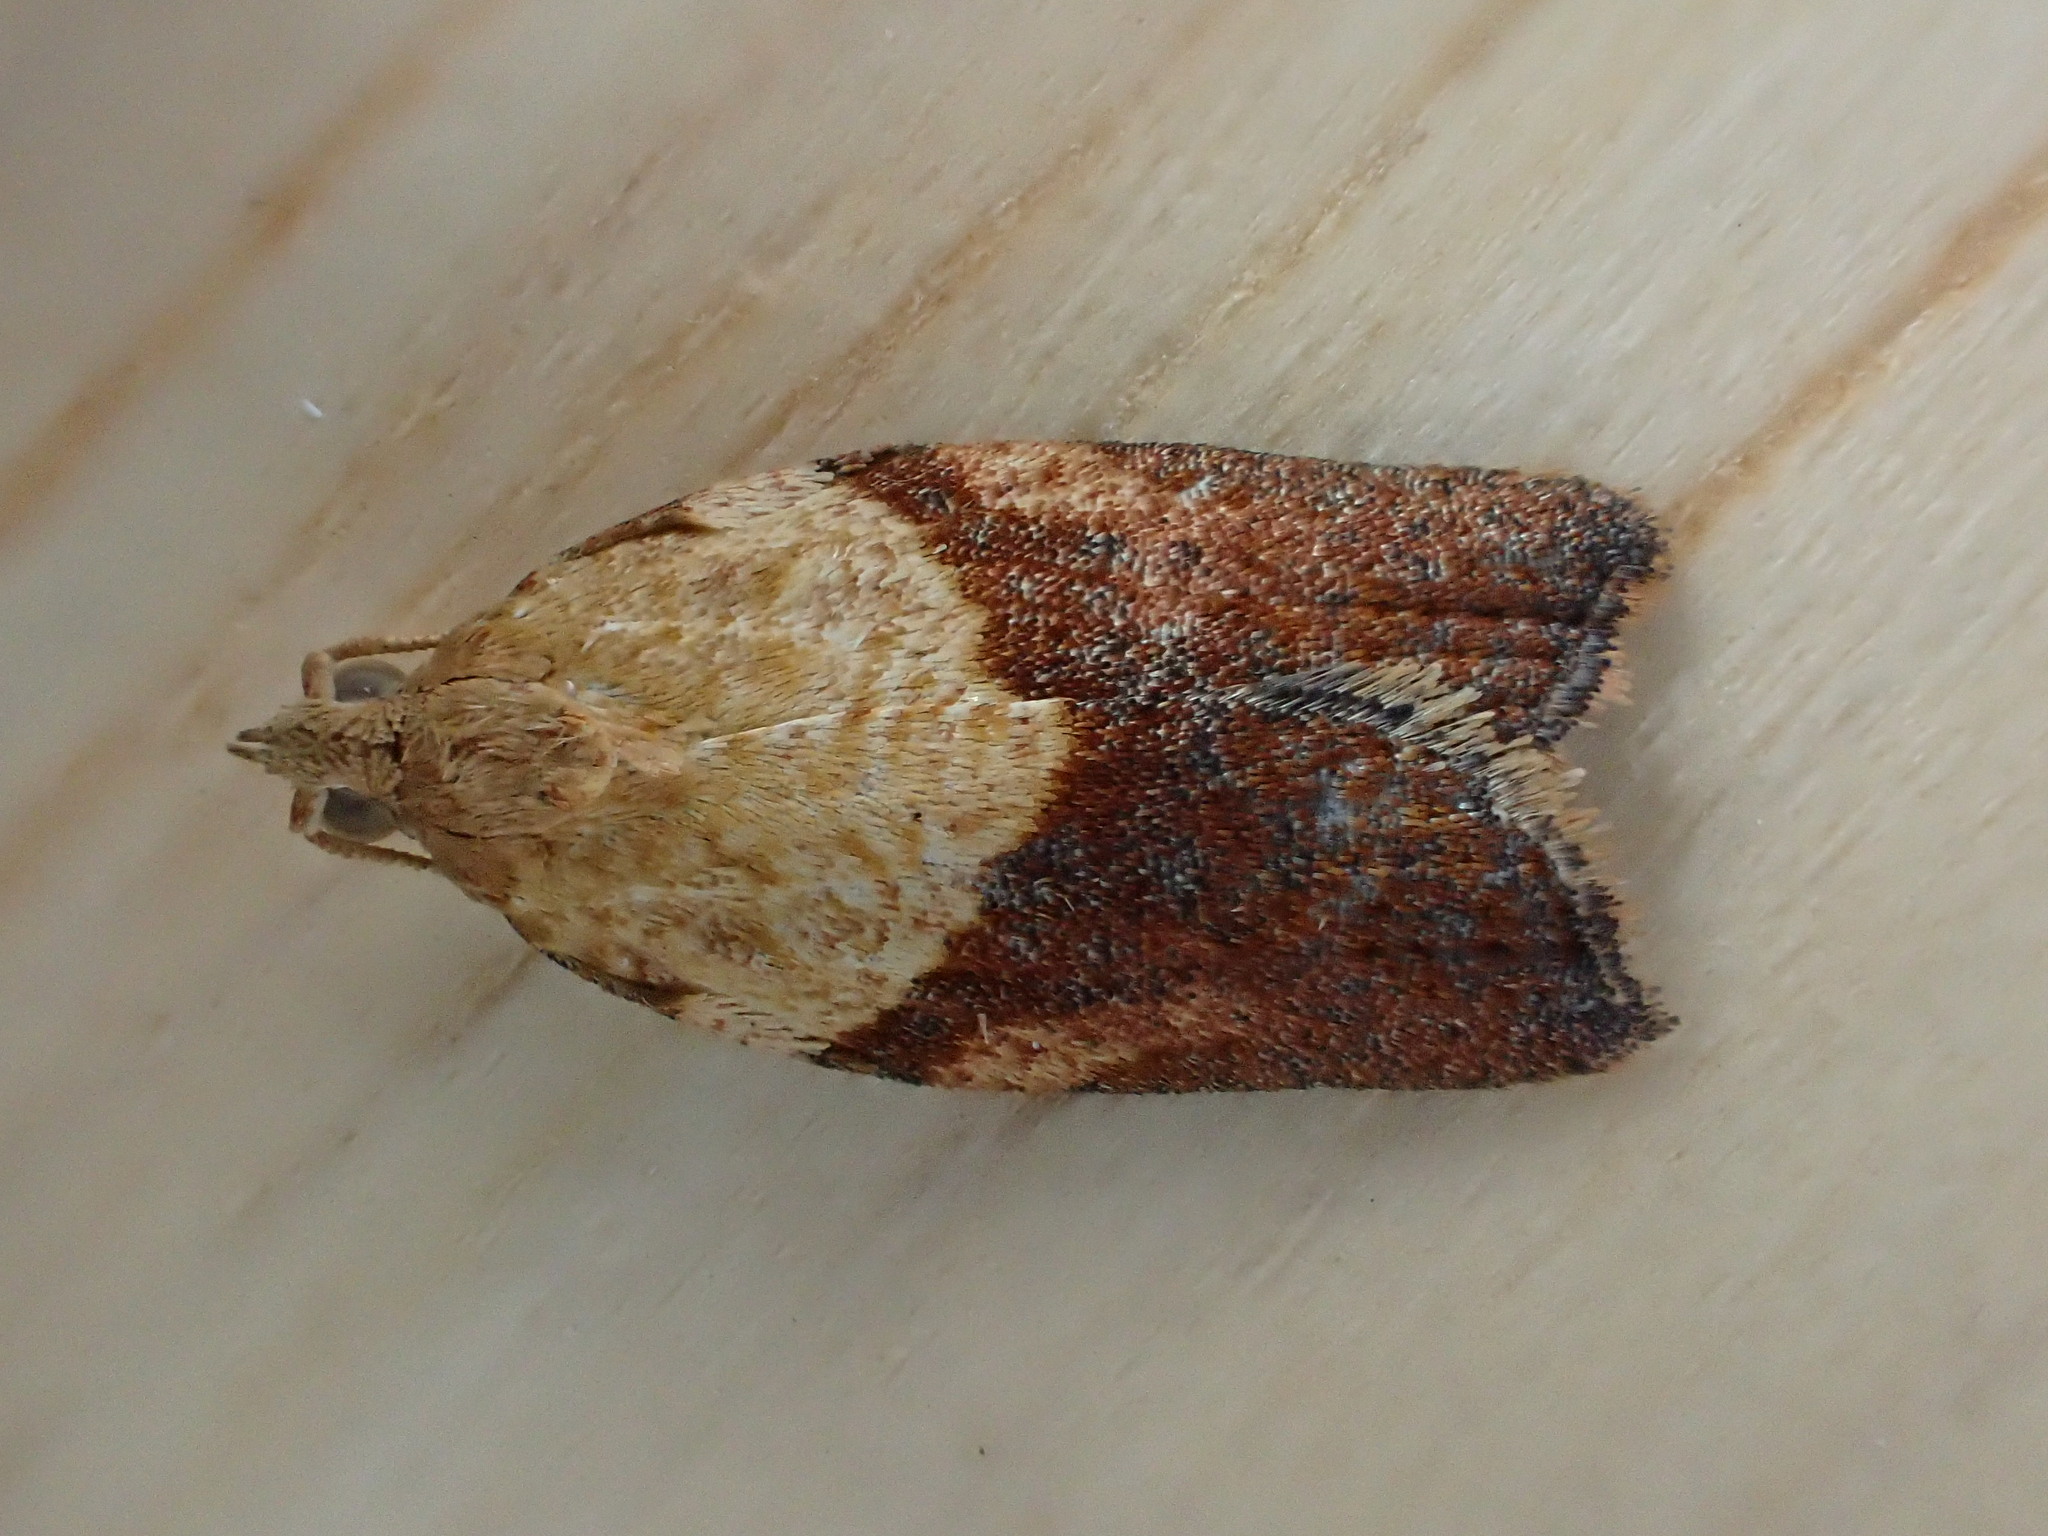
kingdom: Animalia
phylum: Arthropoda
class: Insecta
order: Lepidoptera
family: Tortricidae
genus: Epiphyas
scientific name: Epiphyas postvittana
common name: Light brown apple moth
